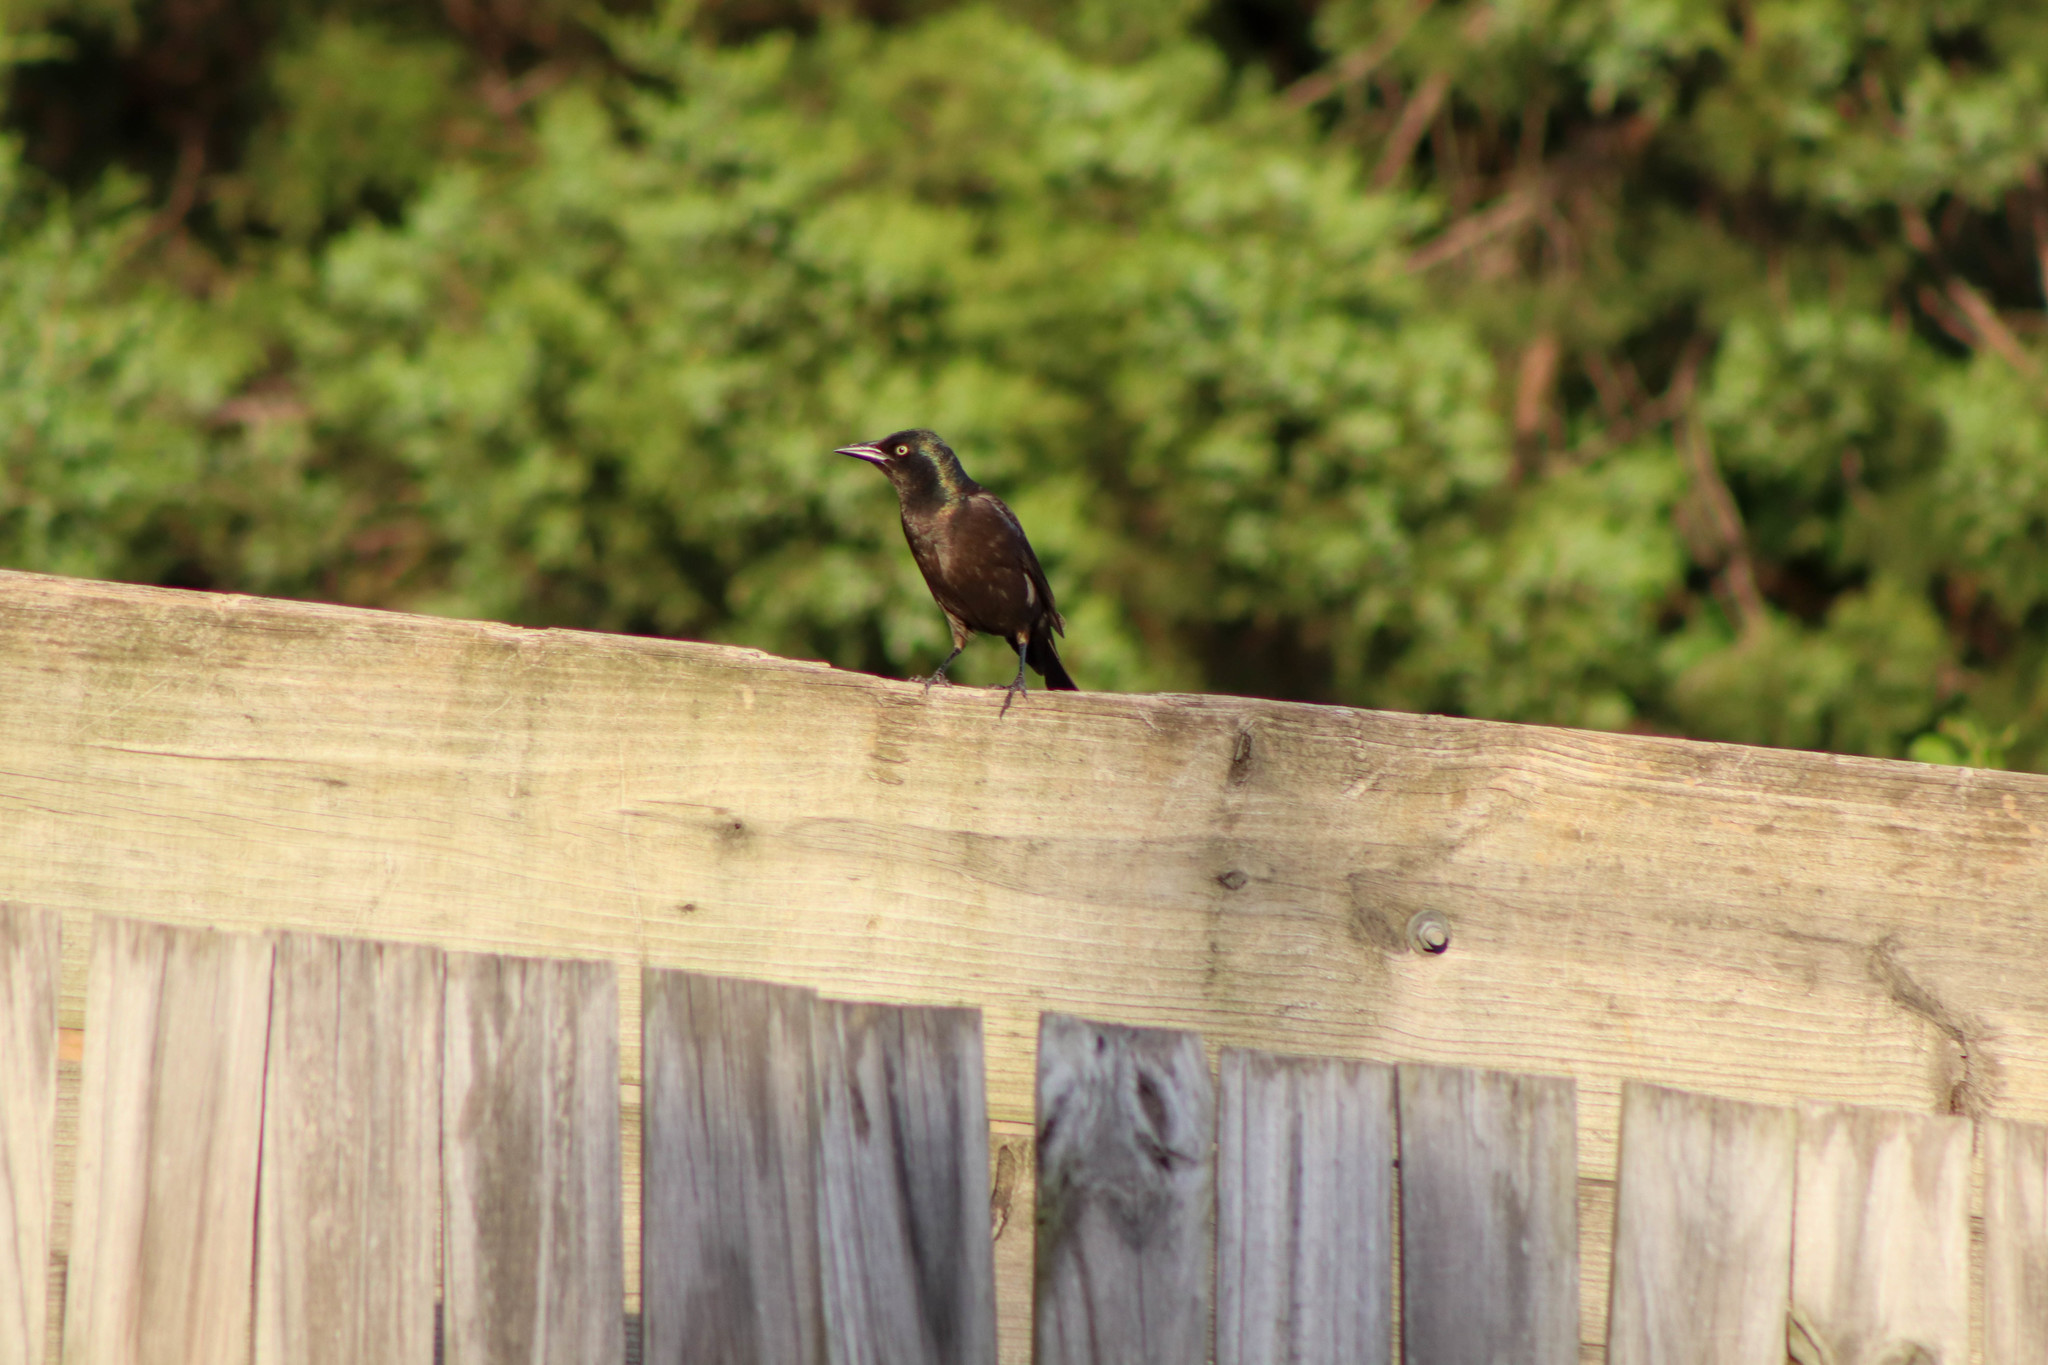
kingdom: Animalia
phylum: Chordata
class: Aves
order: Passeriformes
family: Icteridae
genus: Quiscalus
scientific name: Quiscalus quiscula
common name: Common grackle
